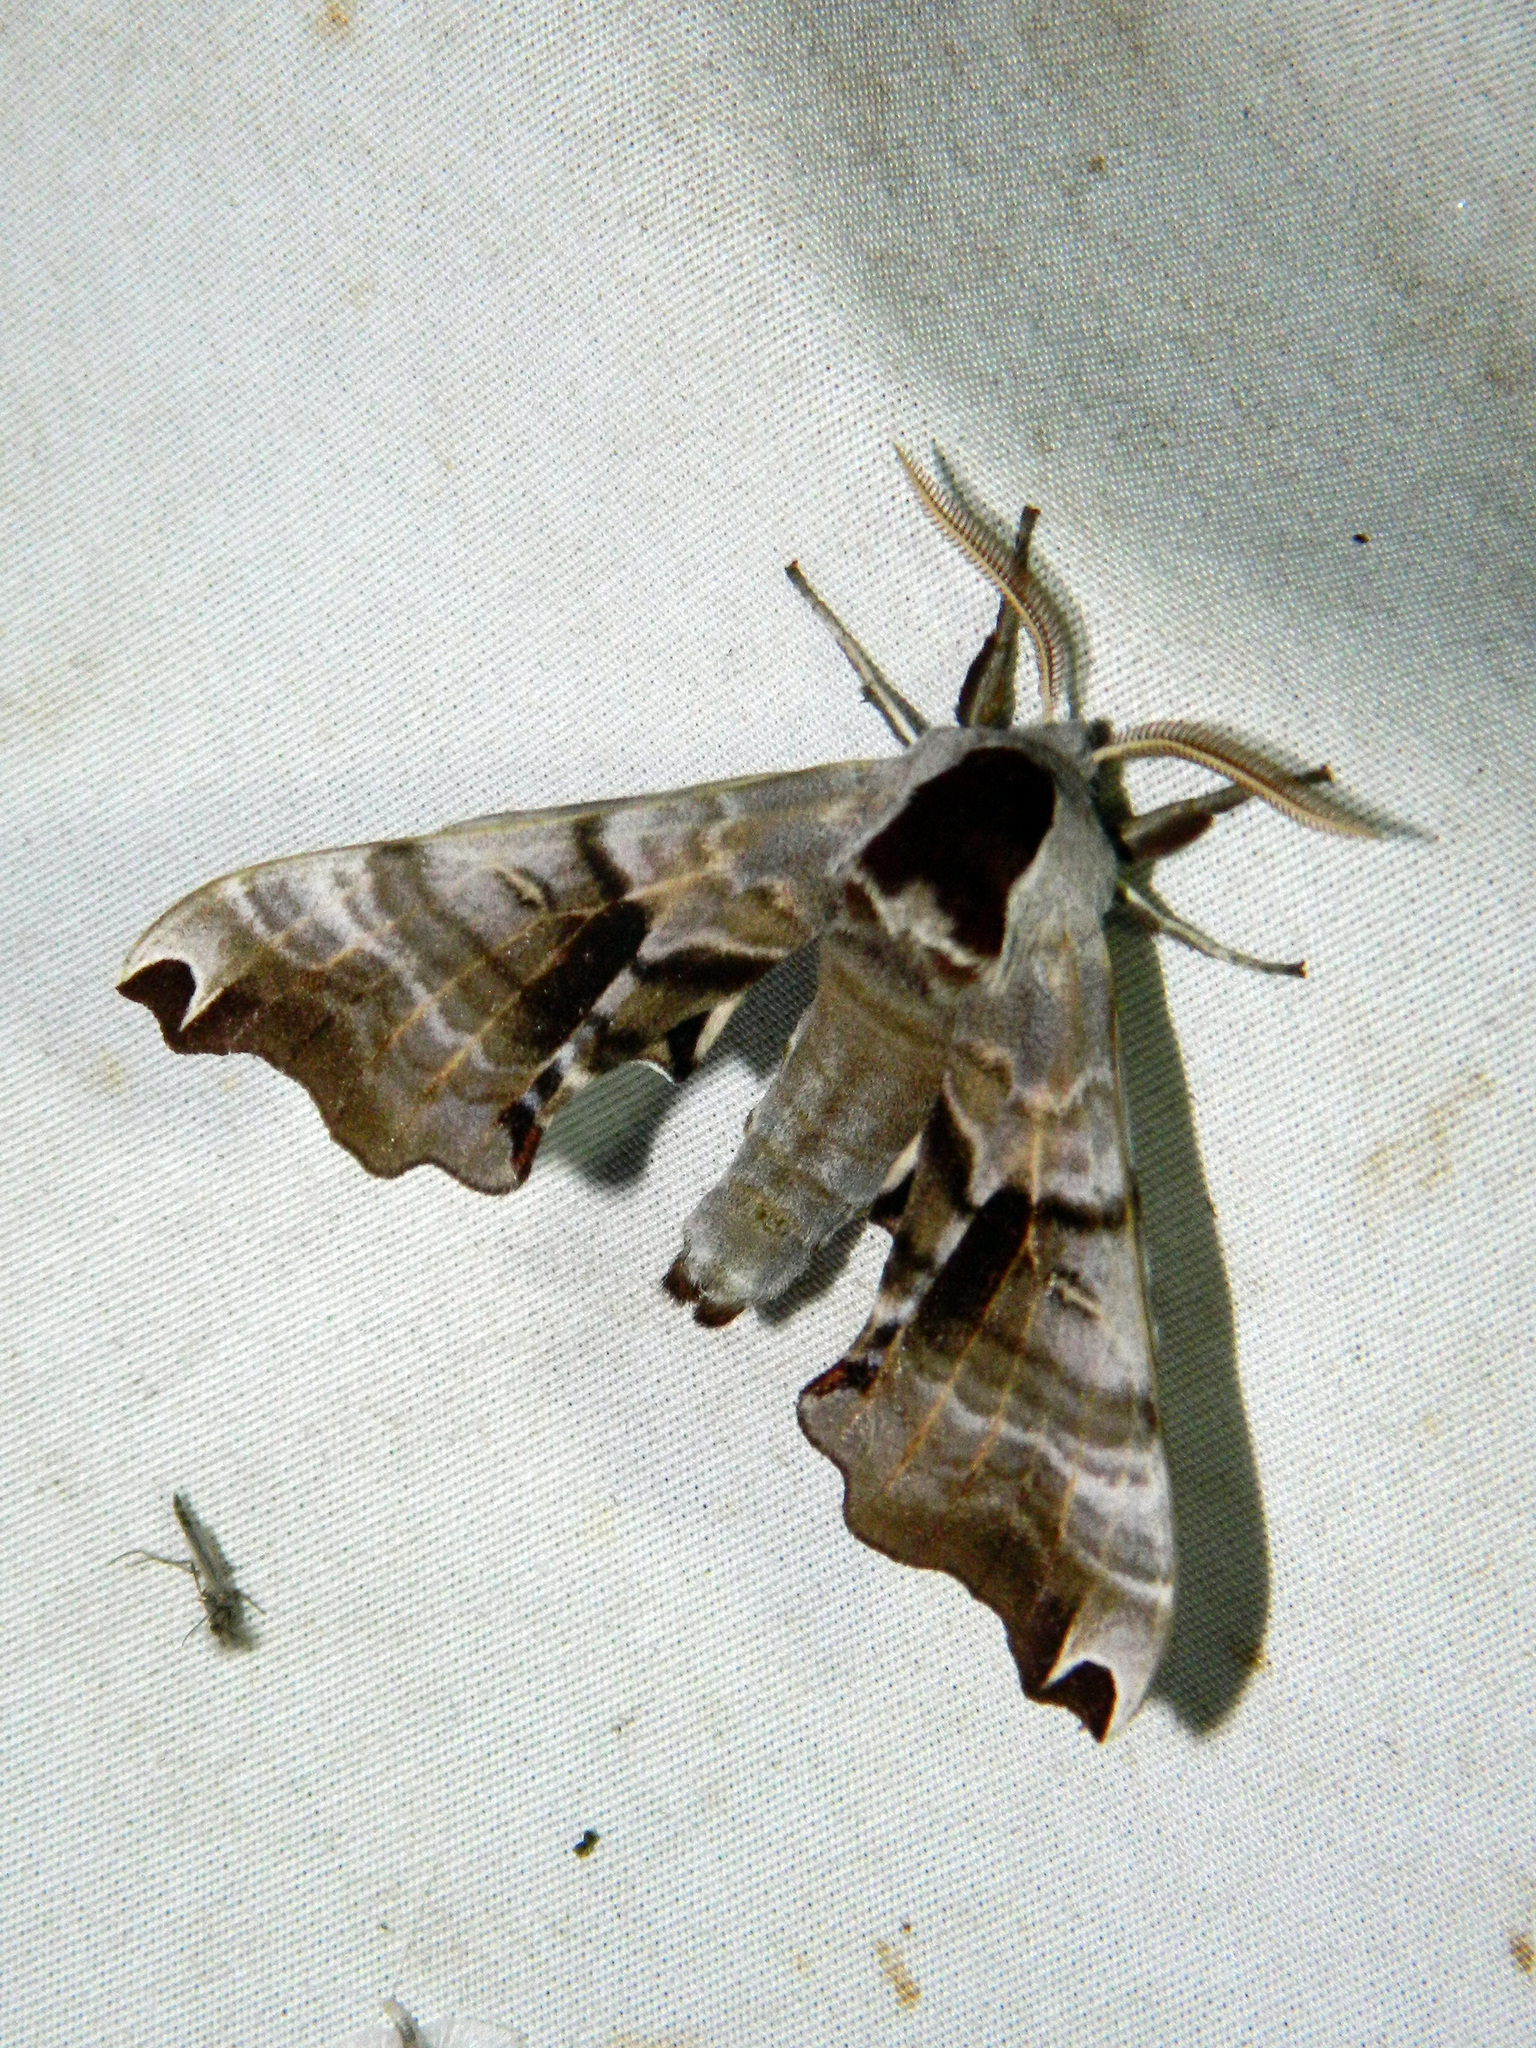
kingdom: Animalia
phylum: Arthropoda
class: Insecta
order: Lepidoptera
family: Sphingidae
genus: Smerinthus
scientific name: Smerinthus jamaicensis
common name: Twin spotted sphinx
